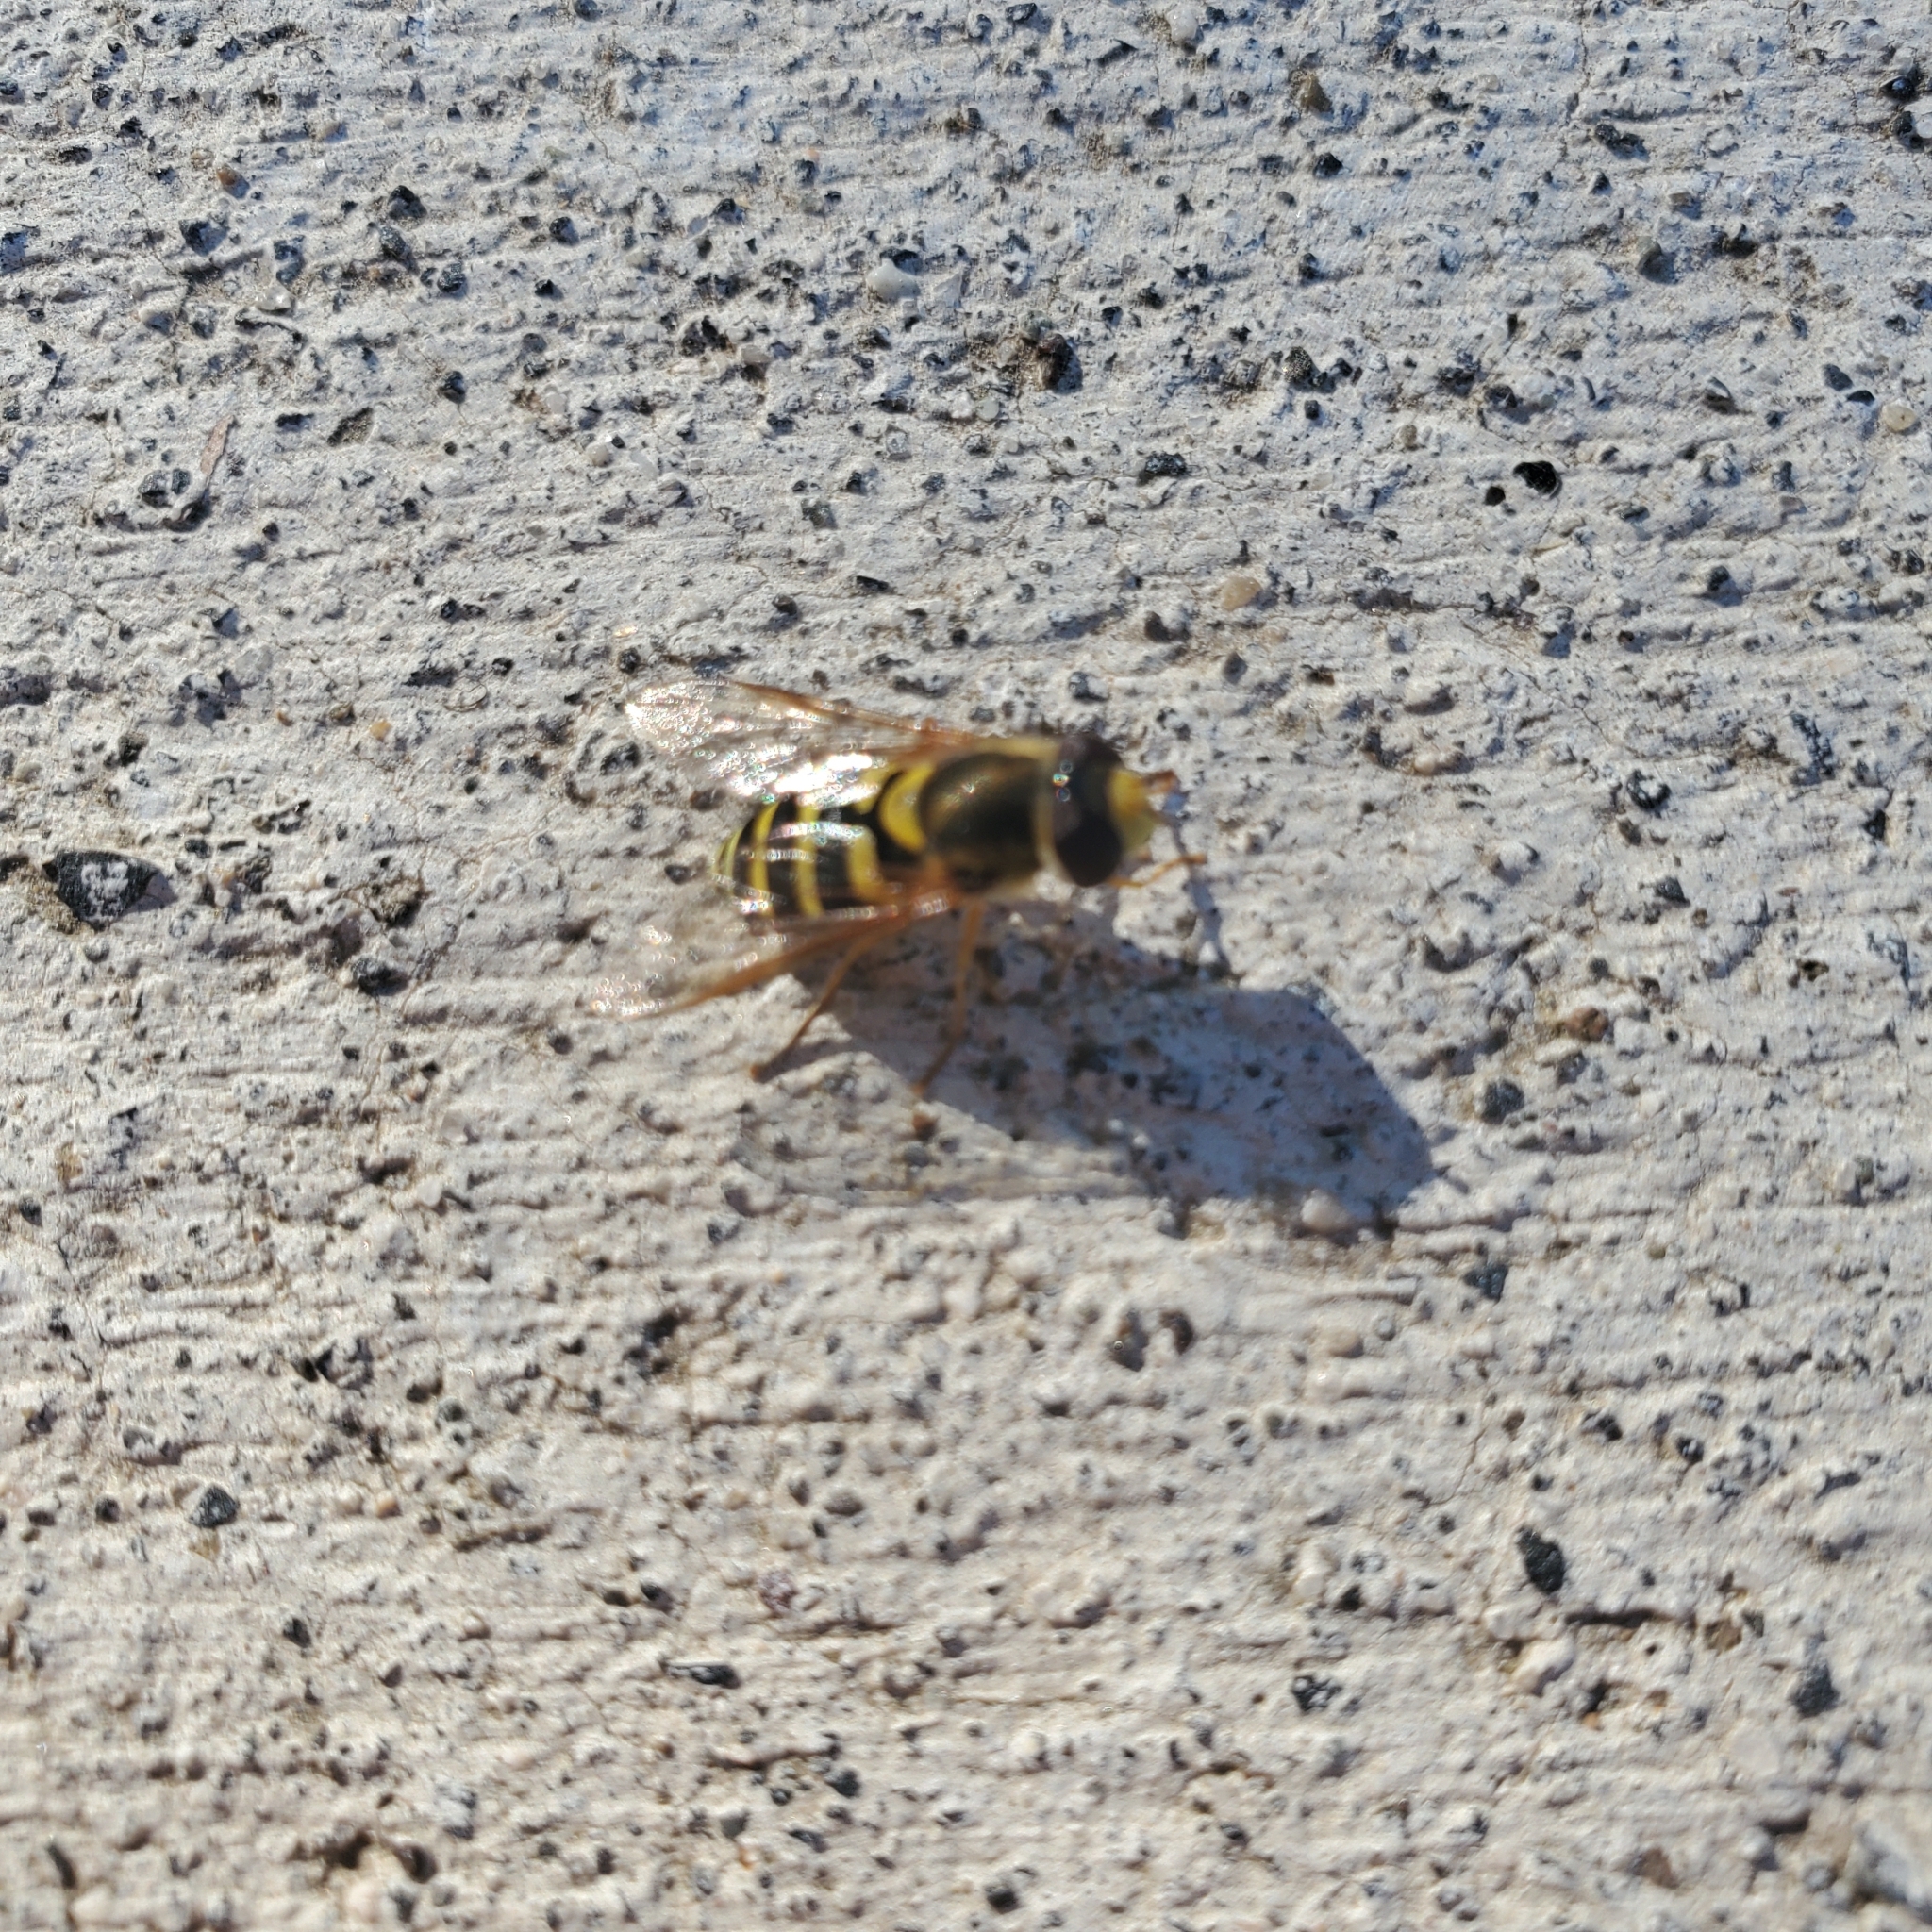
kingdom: Animalia
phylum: Arthropoda
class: Insecta
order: Diptera
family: Syrphidae
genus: Syrphus
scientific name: Syrphus opinator
